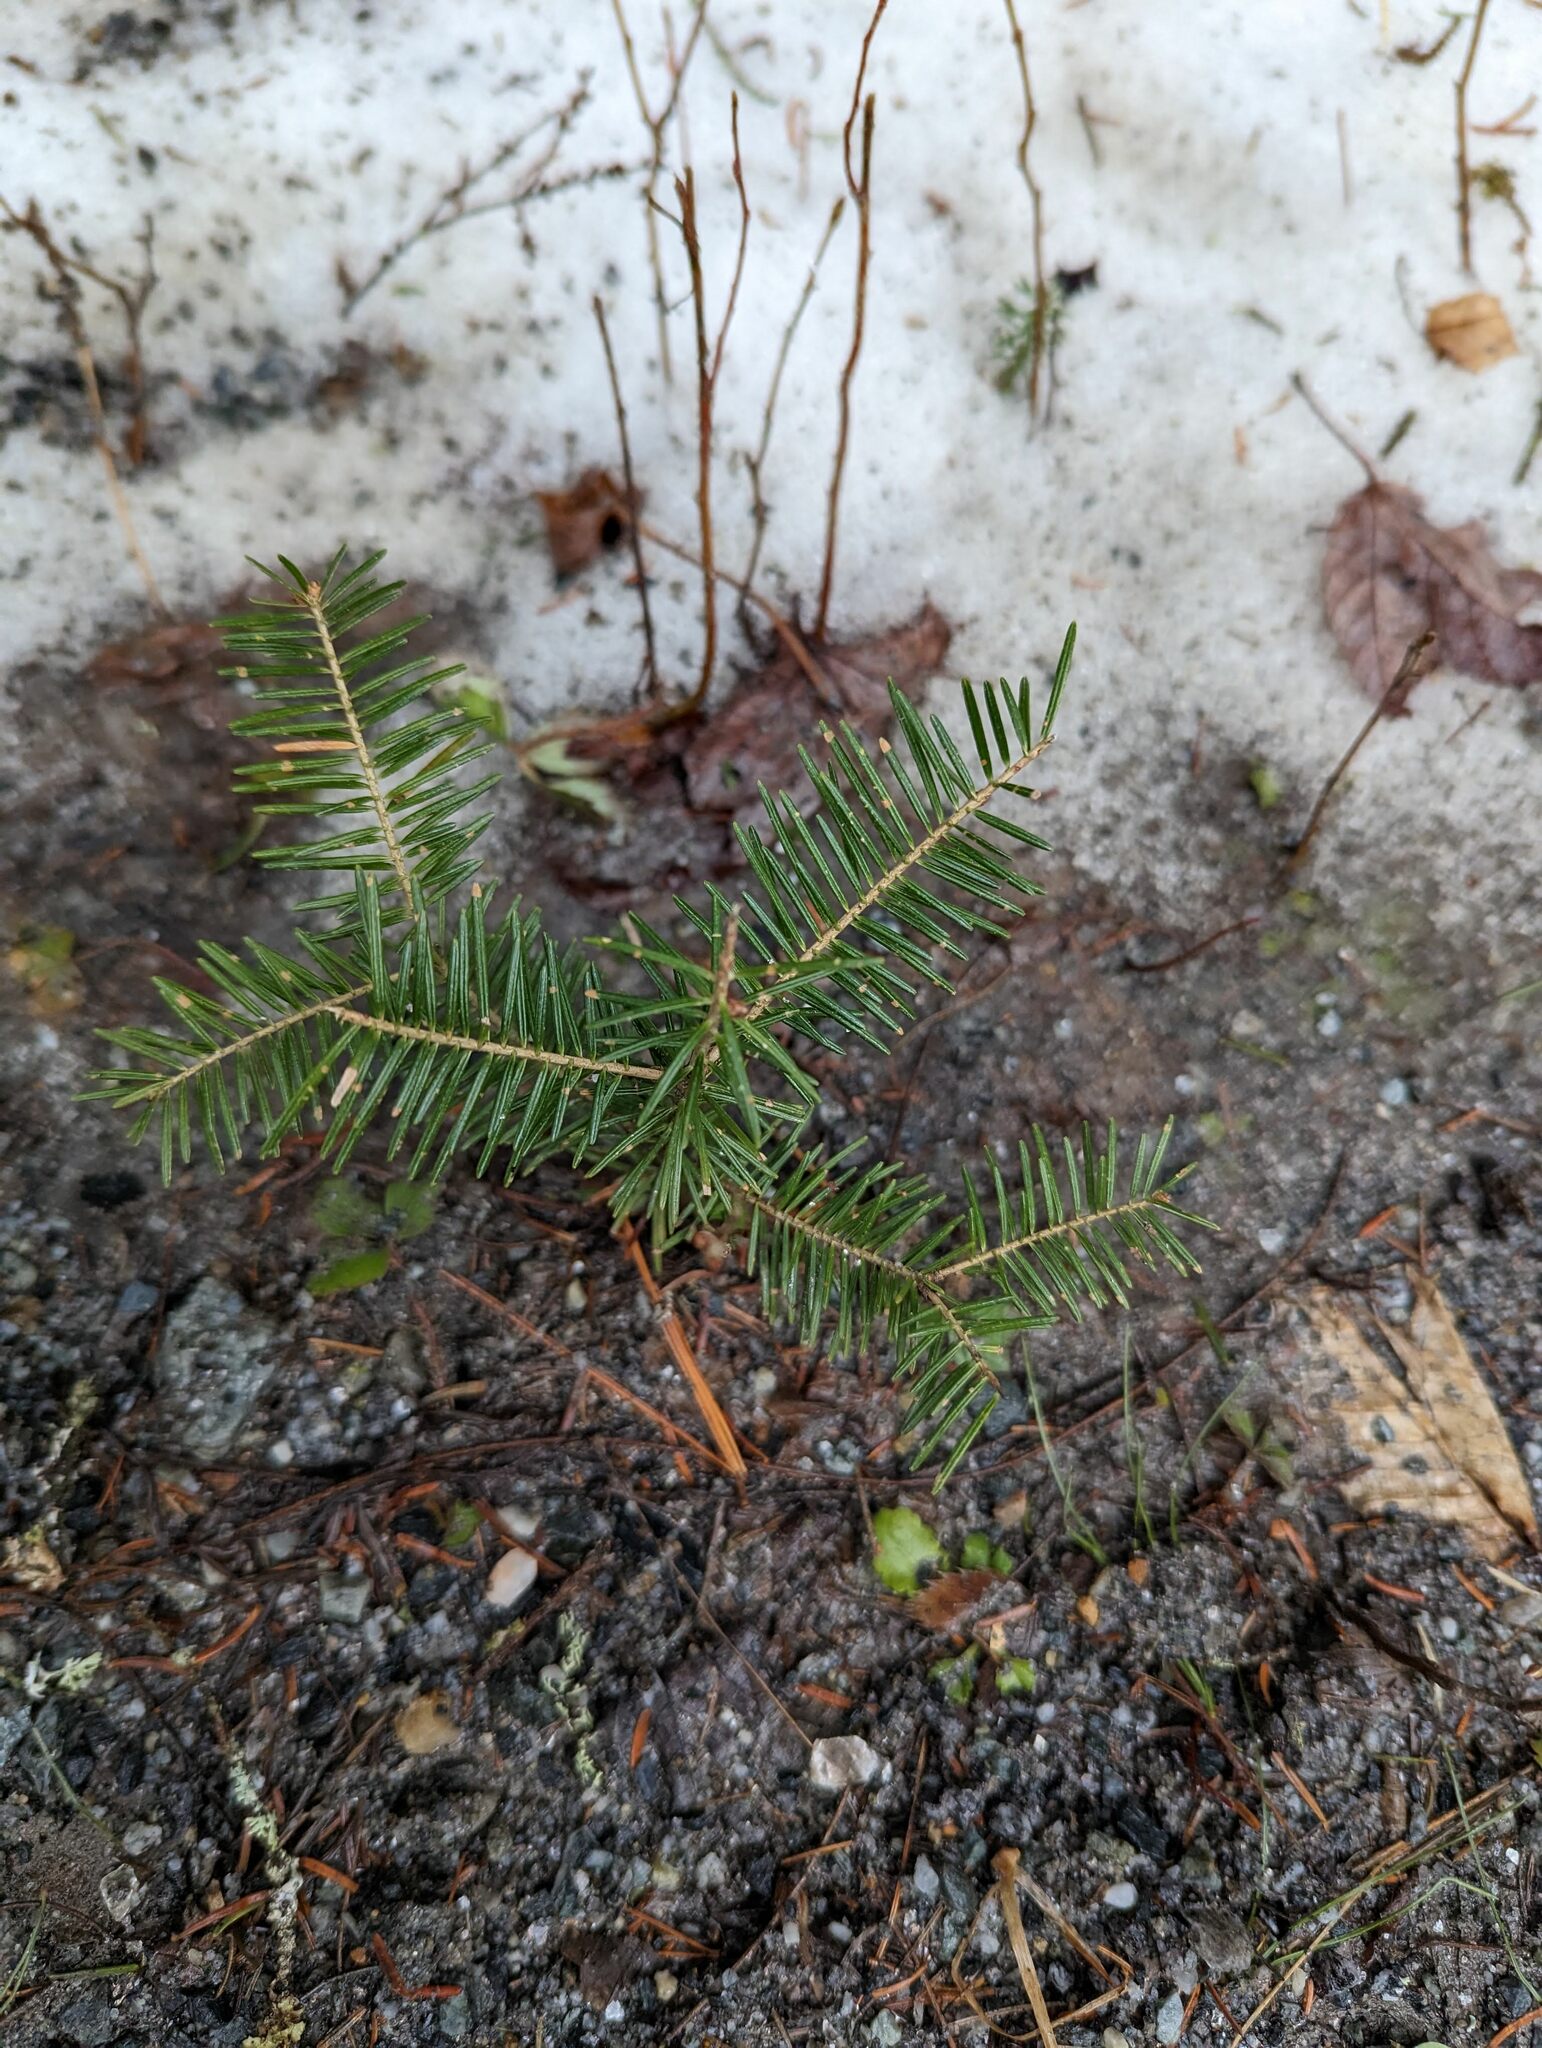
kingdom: Plantae
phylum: Tracheophyta
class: Pinopsida
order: Pinales
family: Pinaceae
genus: Abies
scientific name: Abies balsamea
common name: Balsam fir
